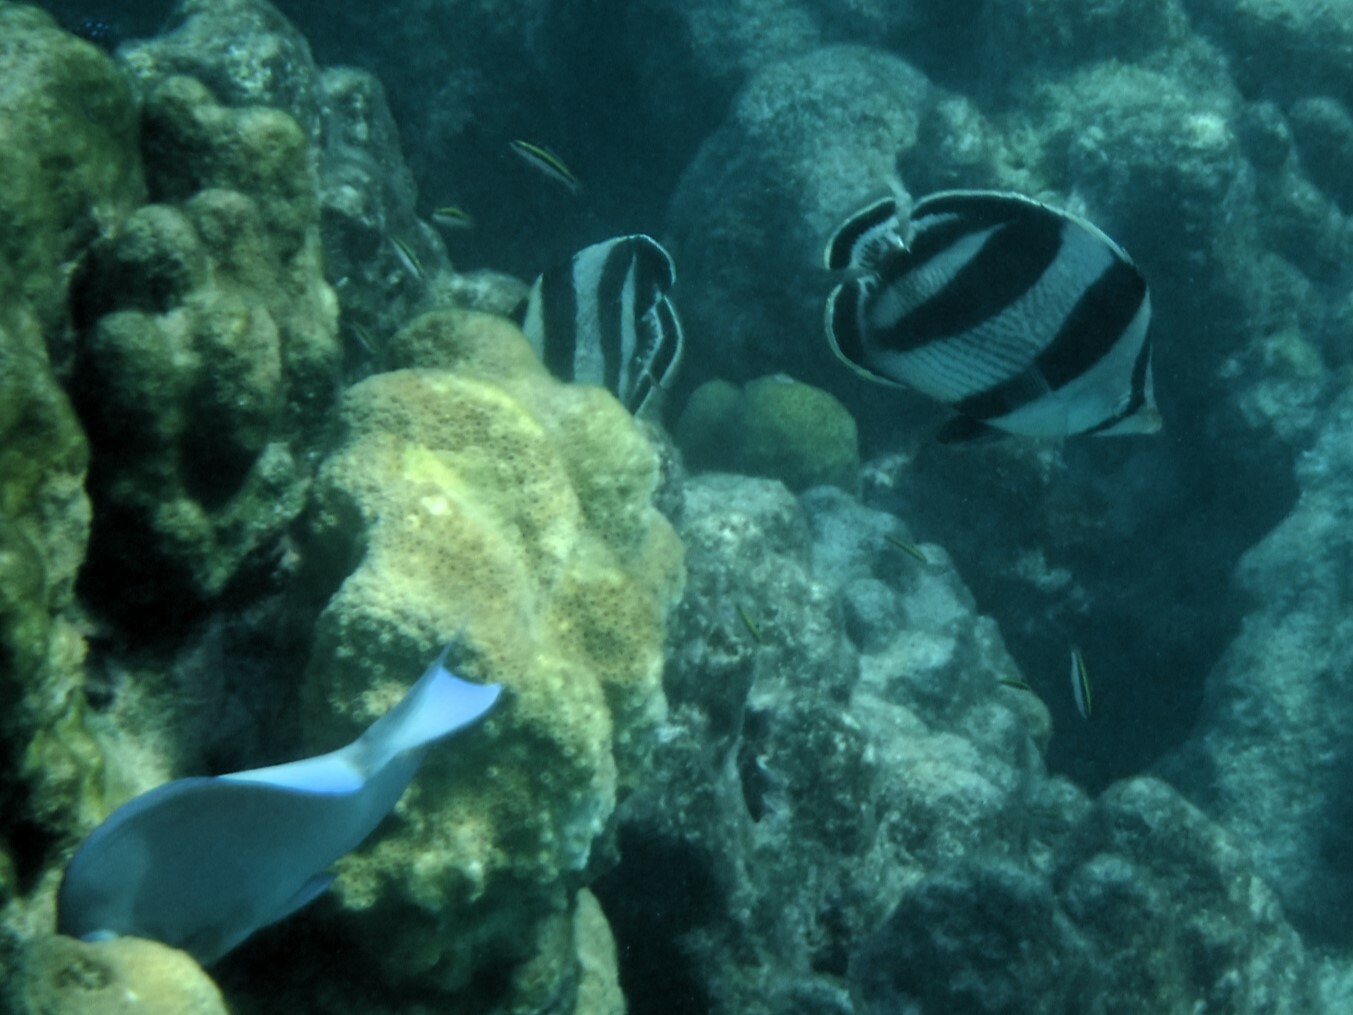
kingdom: Animalia
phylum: Chordata
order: Perciformes
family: Chaetodontidae
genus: Chaetodon
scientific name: Chaetodon striatus
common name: Banded butterflyfish
